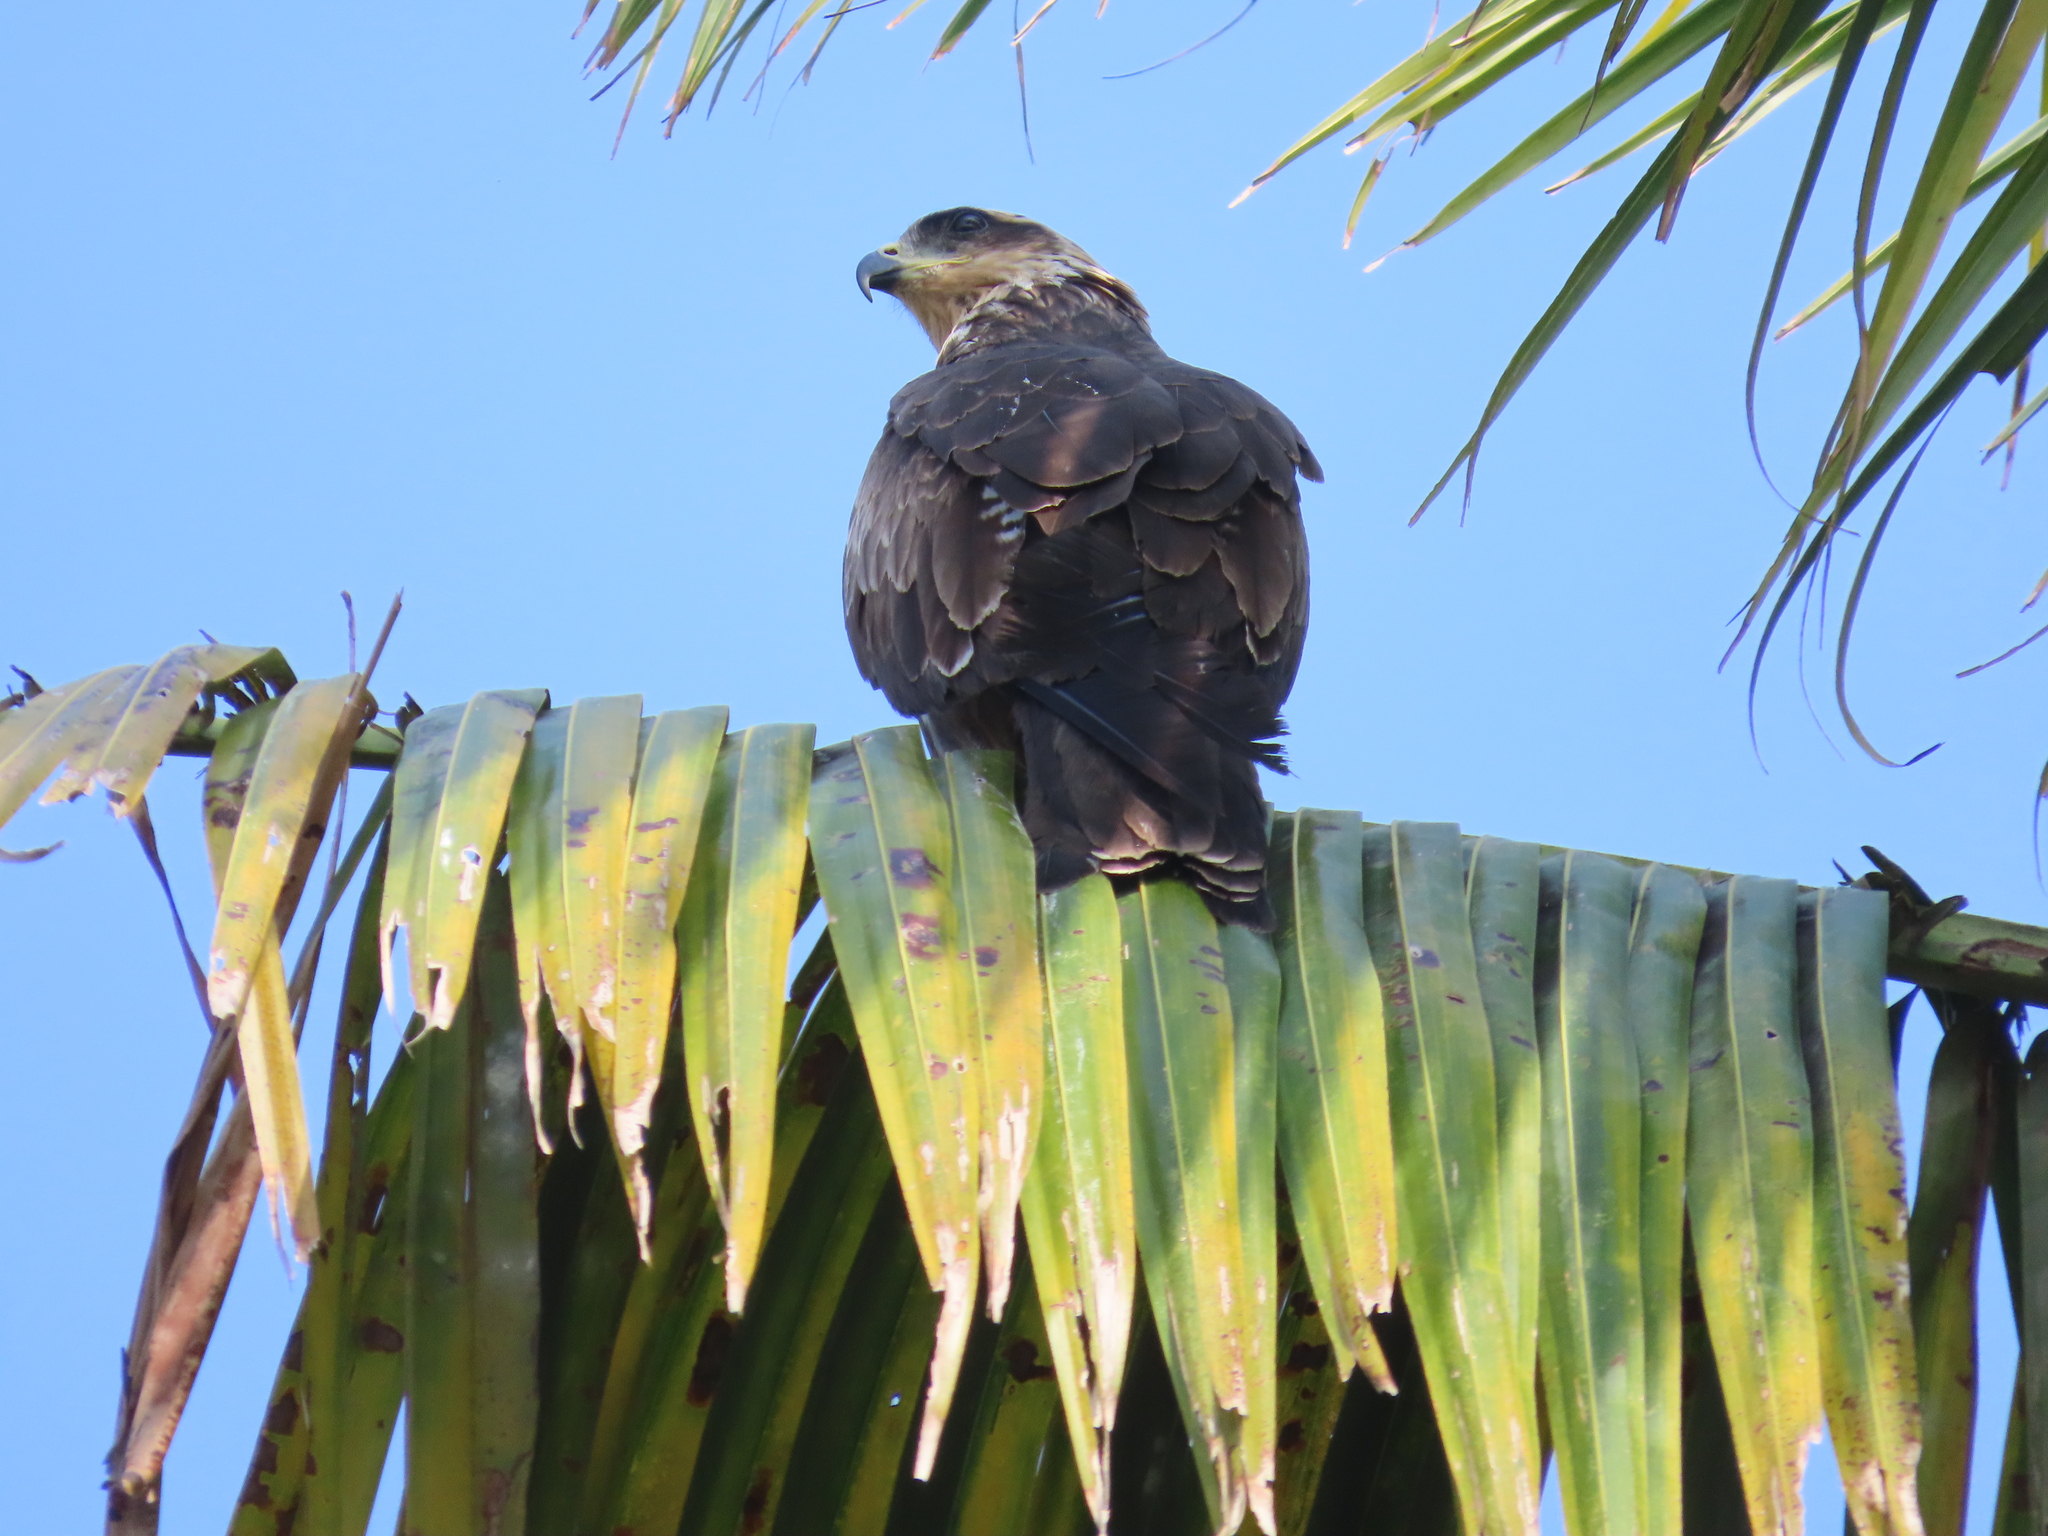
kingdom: Animalia
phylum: Chordata
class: Aves
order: Accipitriformes
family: Accipitridae
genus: Milvus
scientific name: Milvus migrans
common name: Black kite
